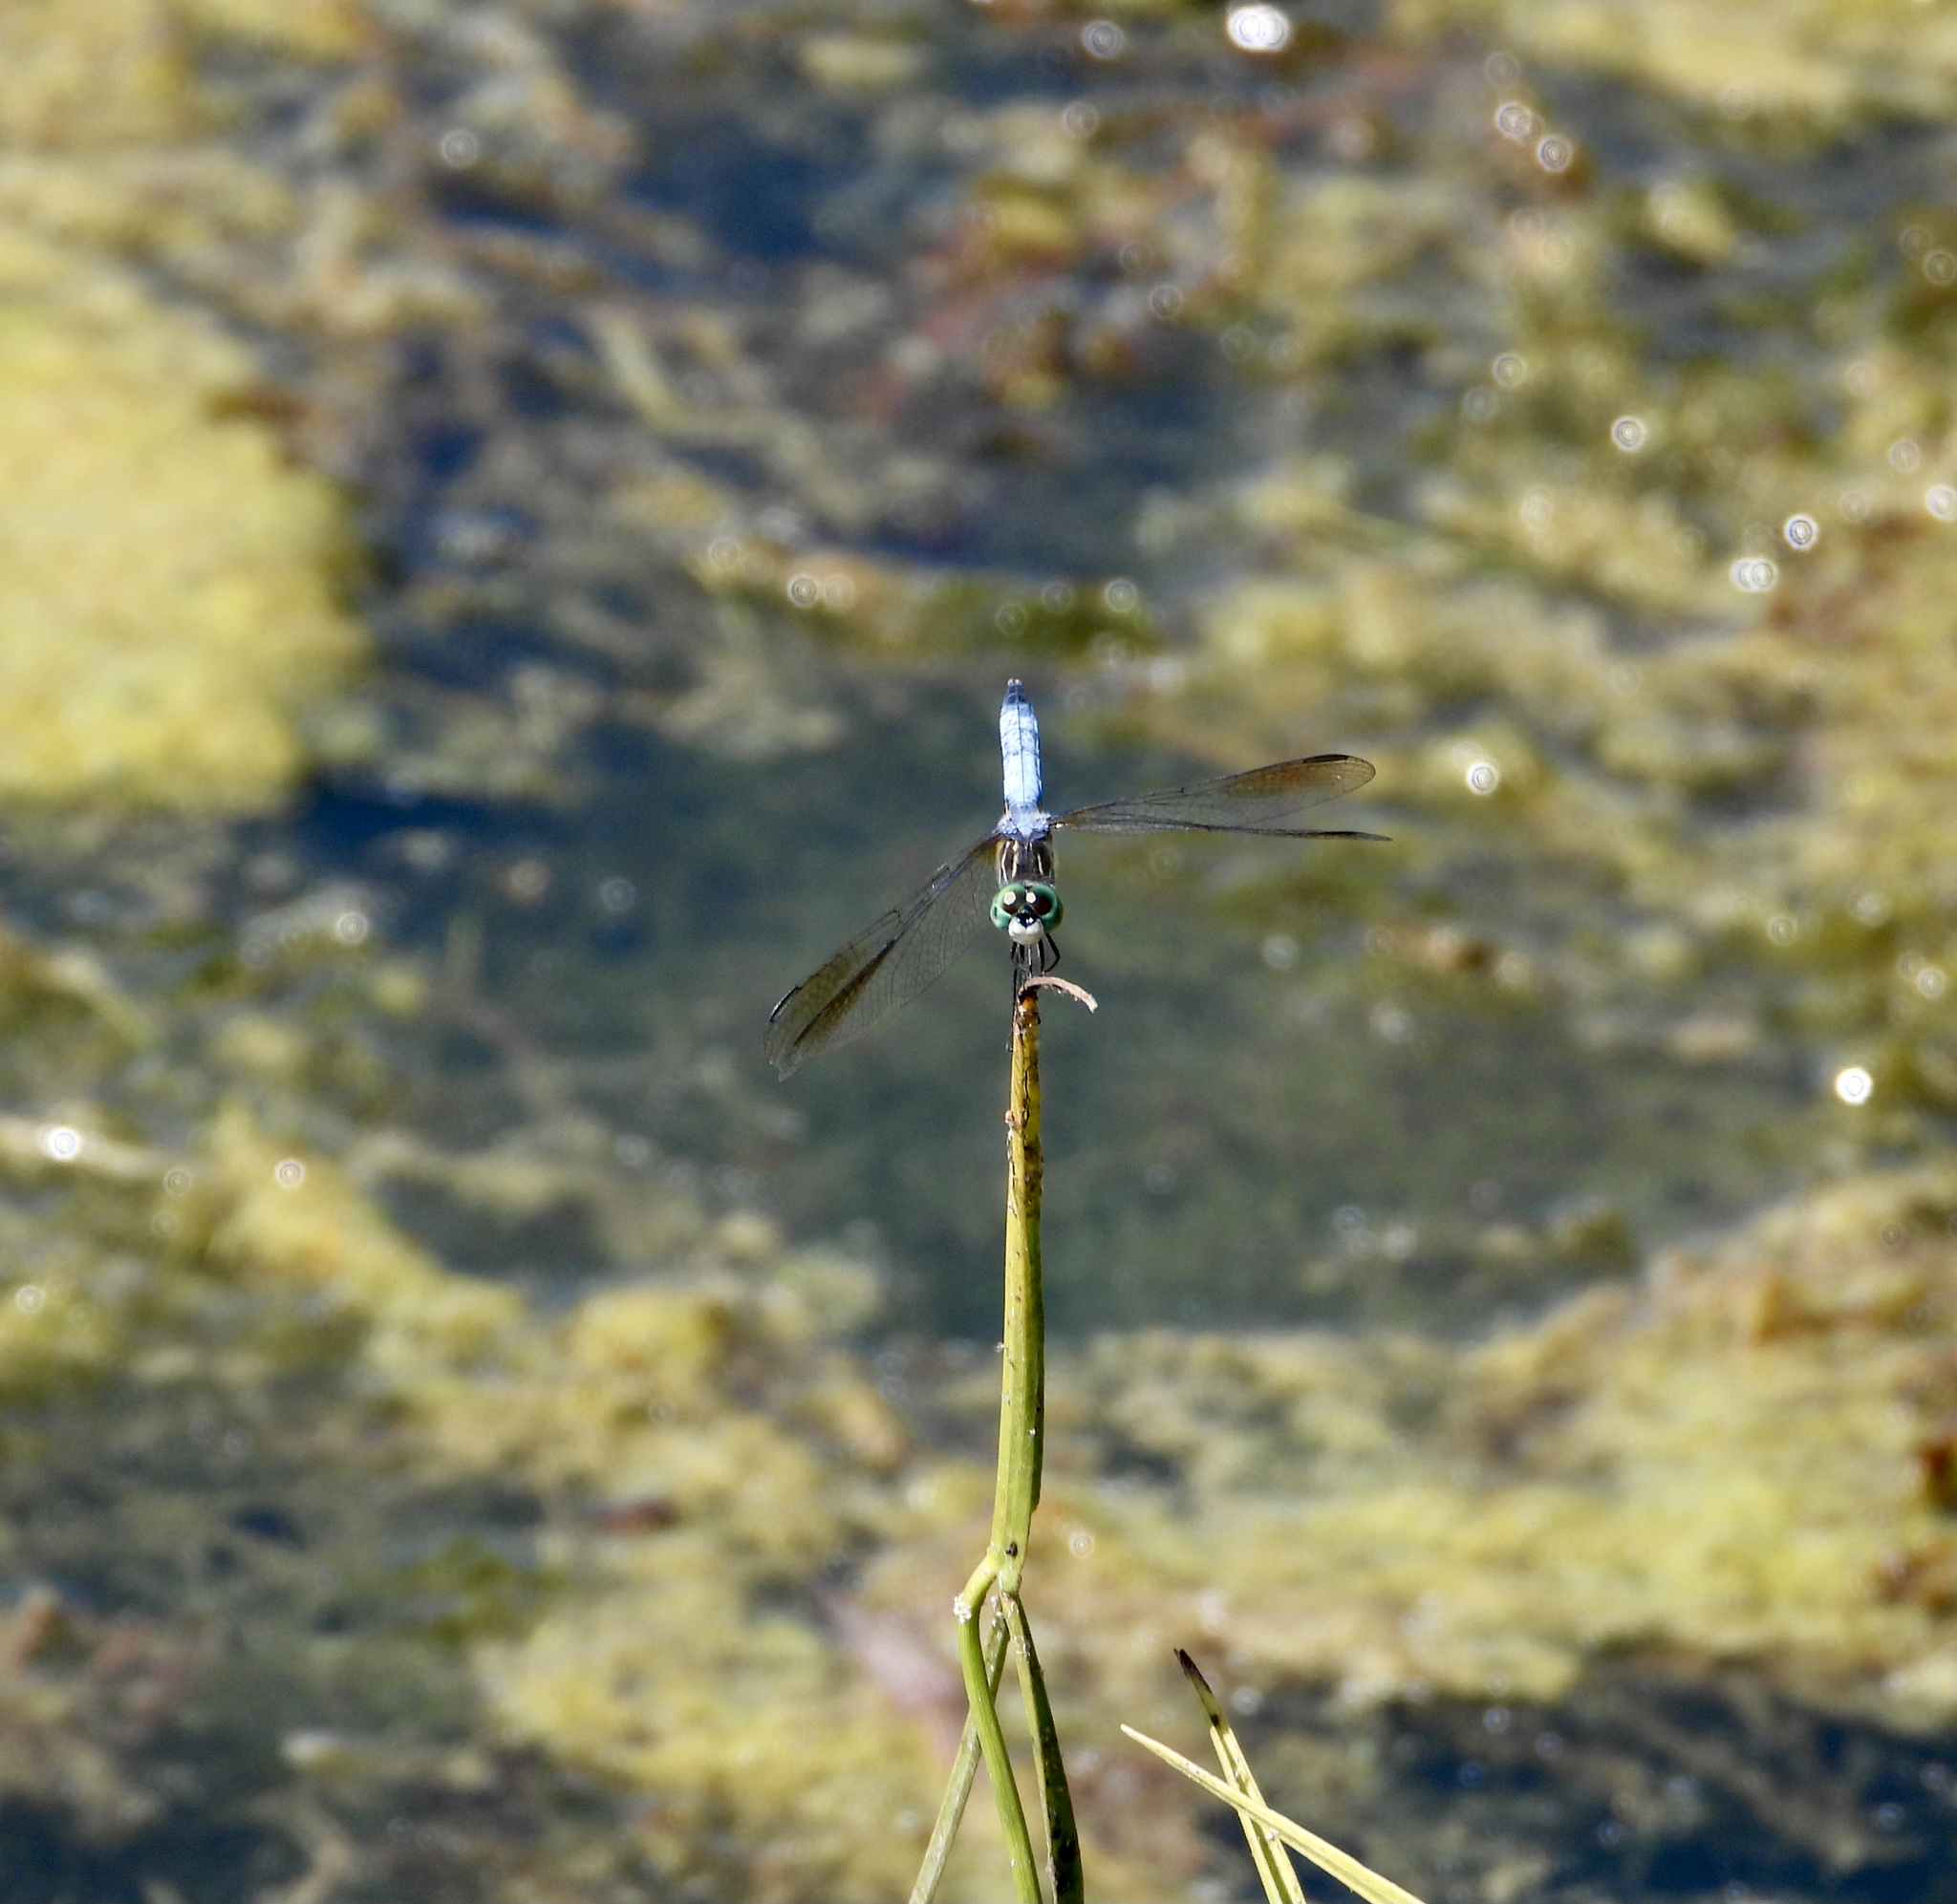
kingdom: Animalia
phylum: Arthropoda
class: Insecta
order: Odonata
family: Libellulidae
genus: Pachydiplax
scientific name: Pachydiplax longipennis
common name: Blue dasher
